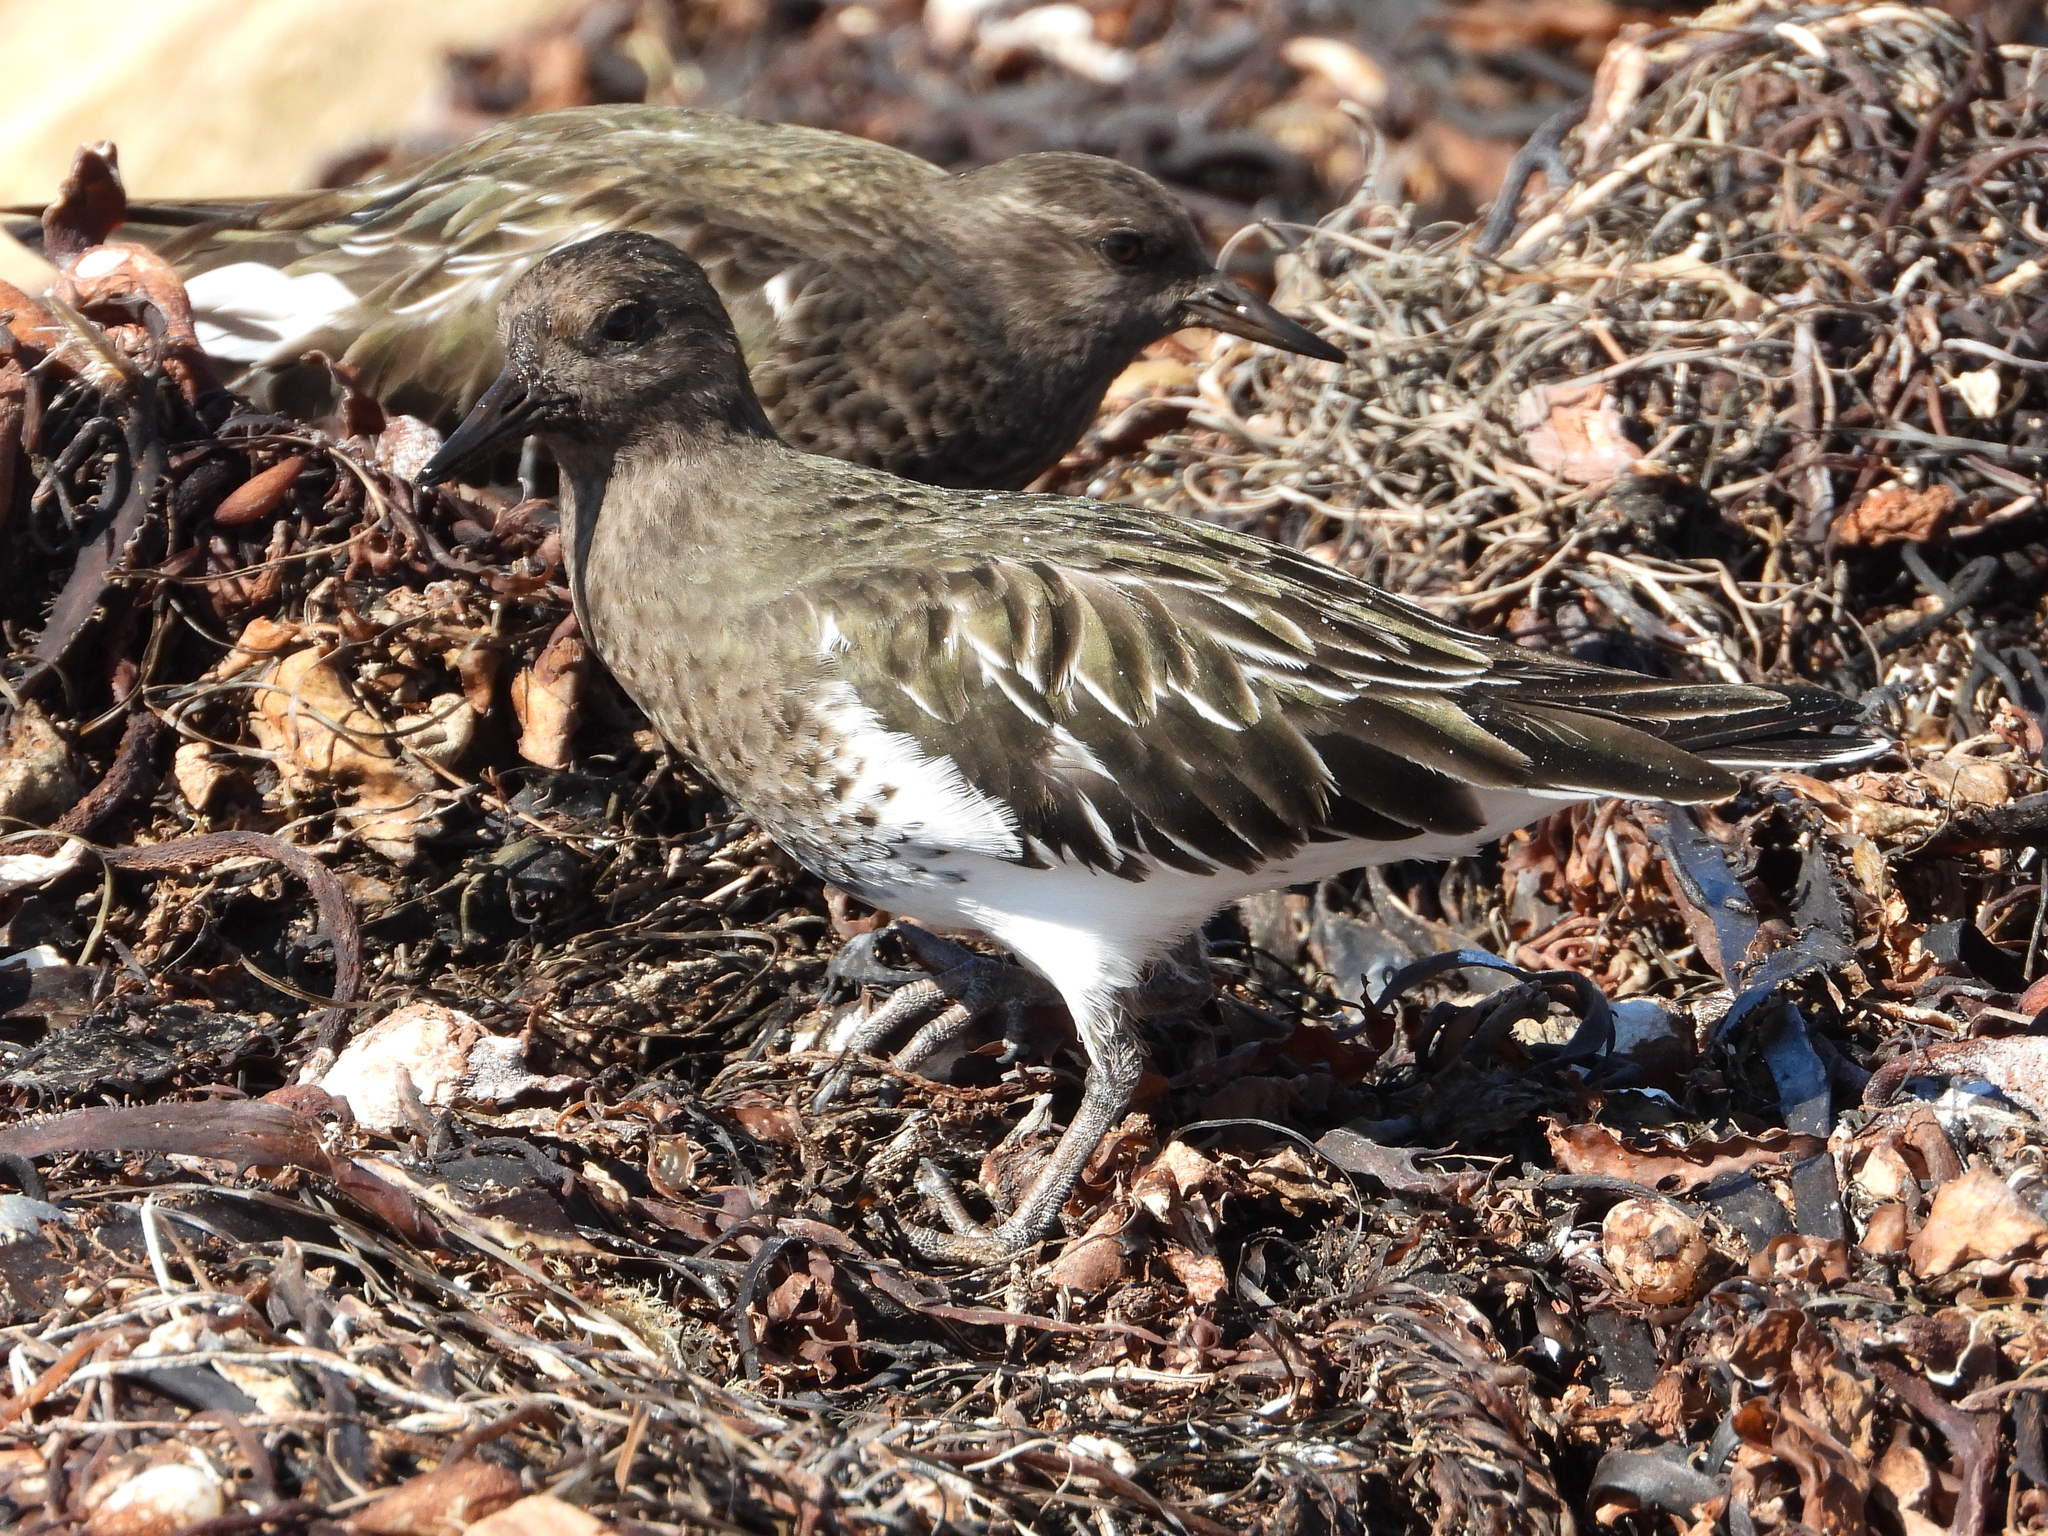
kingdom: Animalia
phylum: Chordata
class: Aves
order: Charadriiformes
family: Scolopacidae
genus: Arenaria
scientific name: Arenaria melanocephala
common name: Black turnstone
